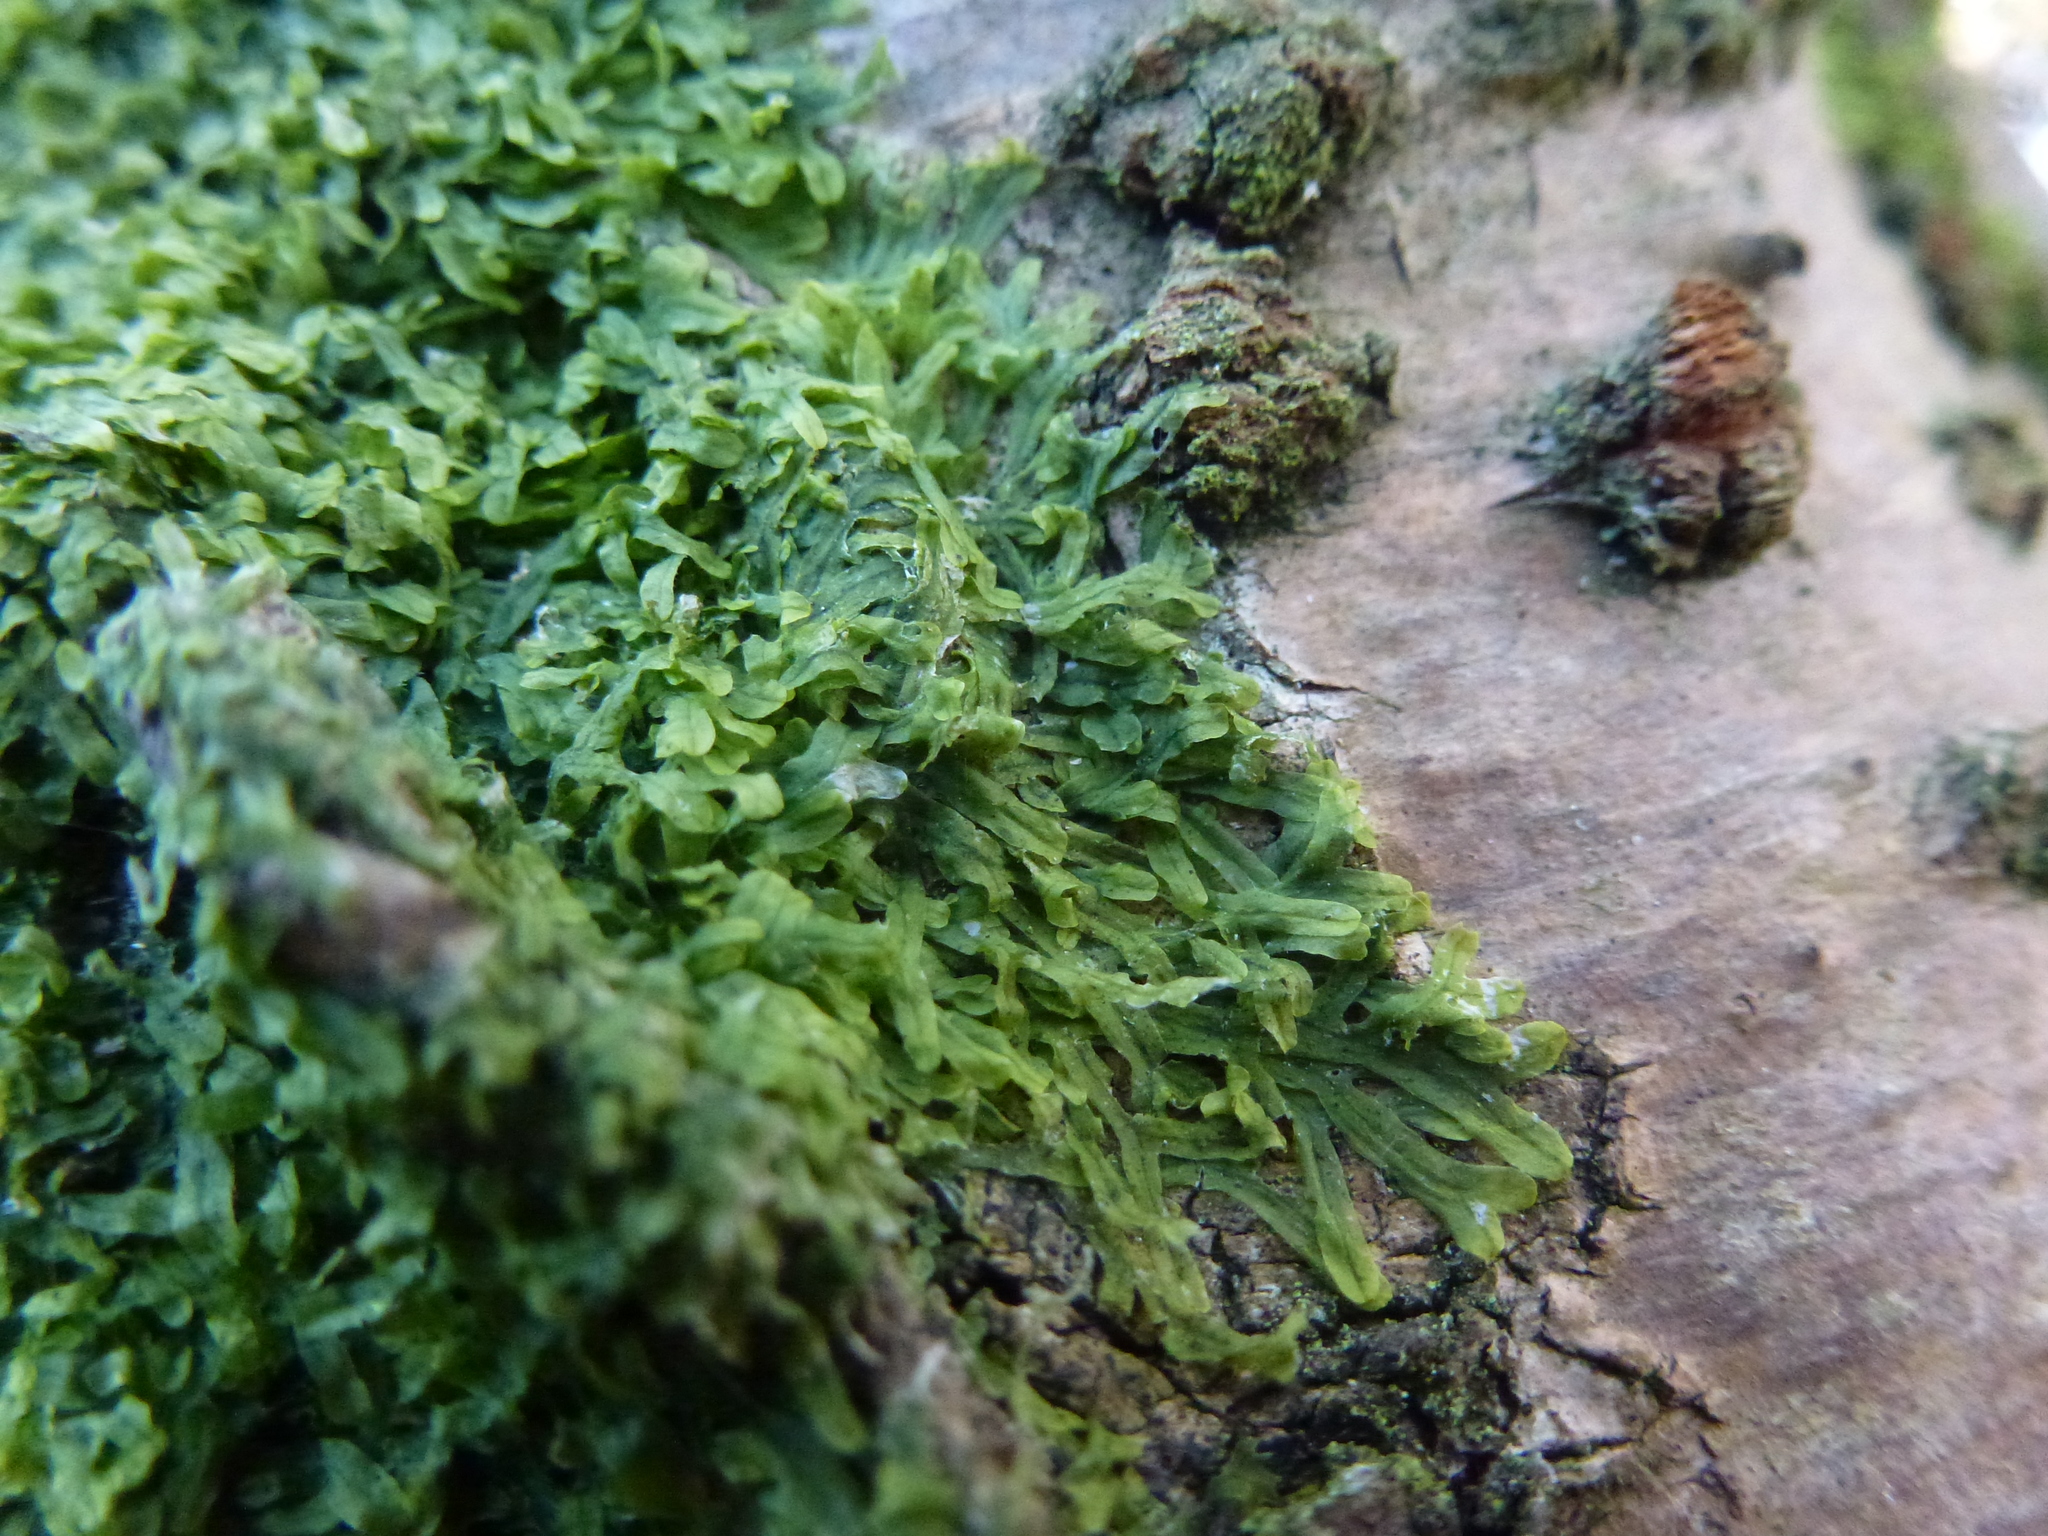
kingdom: Plantae
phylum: Marchantiophyta
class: Jungermanniopsida
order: Metzgeriales
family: Metzgeriaceae
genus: Metzgeria
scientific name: Metzgeria furcata
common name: Forked veilwort
